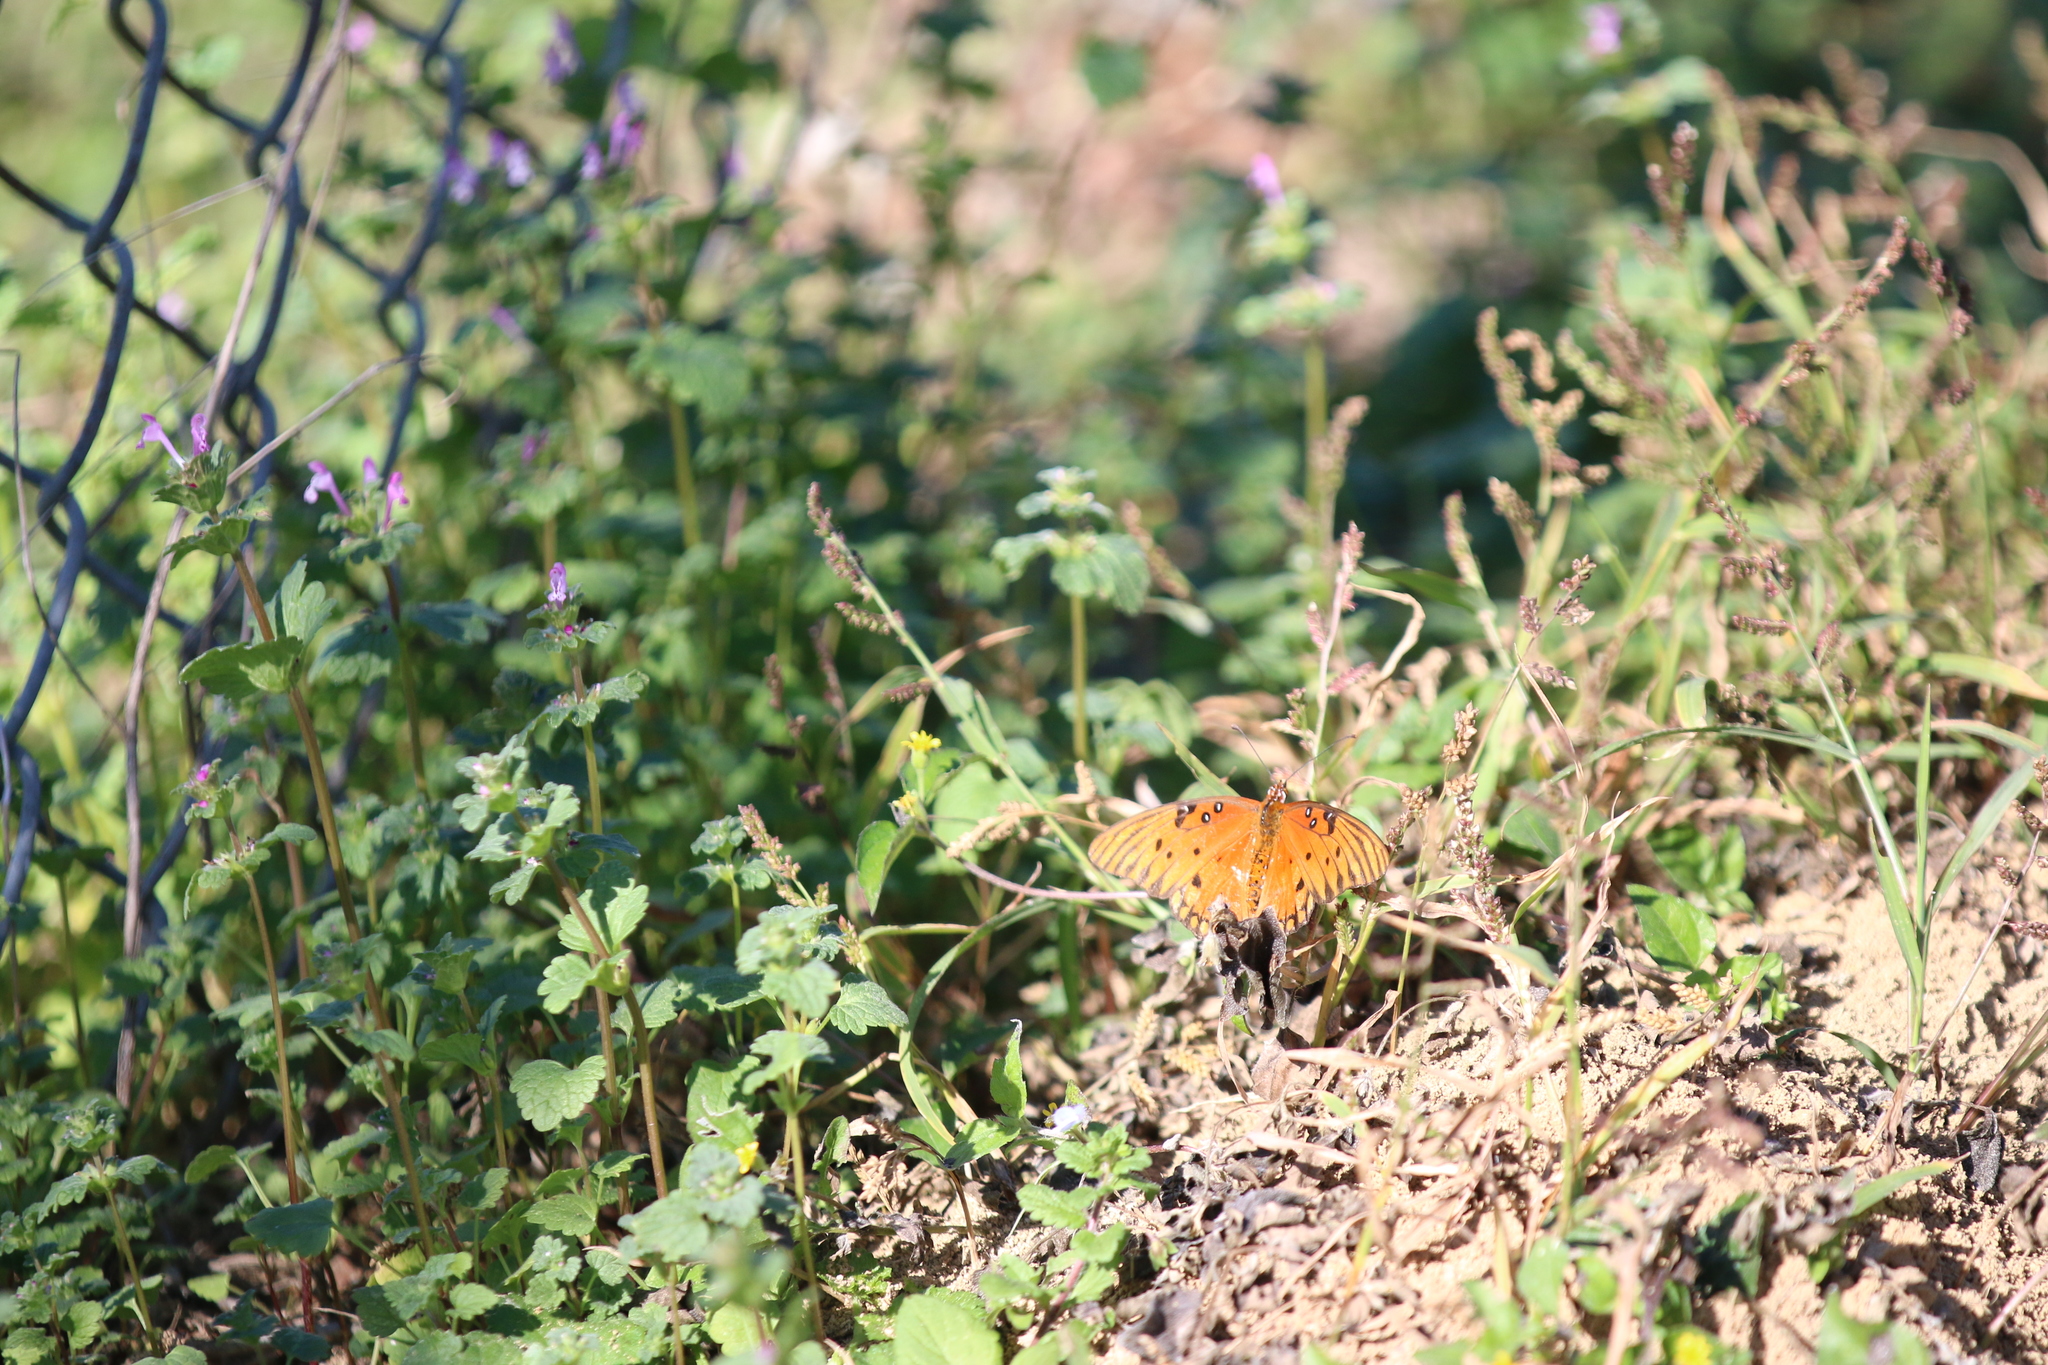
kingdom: Animalia
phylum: Arthropoda
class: Insecta
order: Lepidoptera
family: Nymphalidae
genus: Dione
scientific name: Dione vanillae
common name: Gulf fritillary
